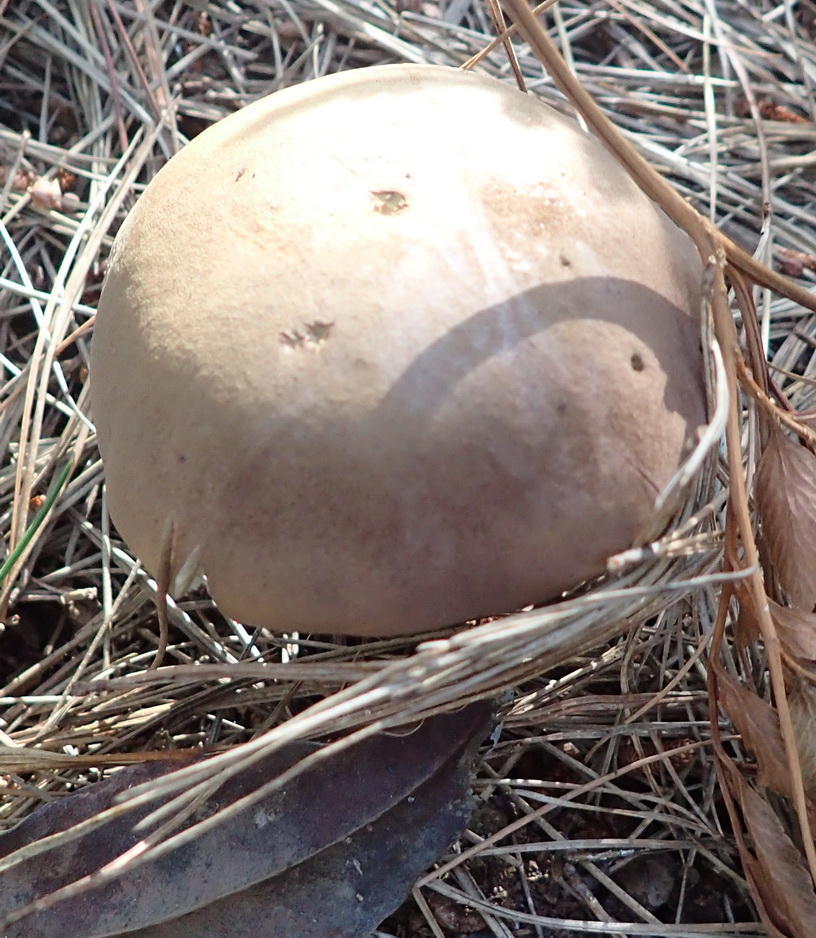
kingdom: Fungi
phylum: Basidiomycota
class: Agaricomycetes
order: Boletales
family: Boletaceae
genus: Boletus
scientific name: Boletus edulis
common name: Cep
